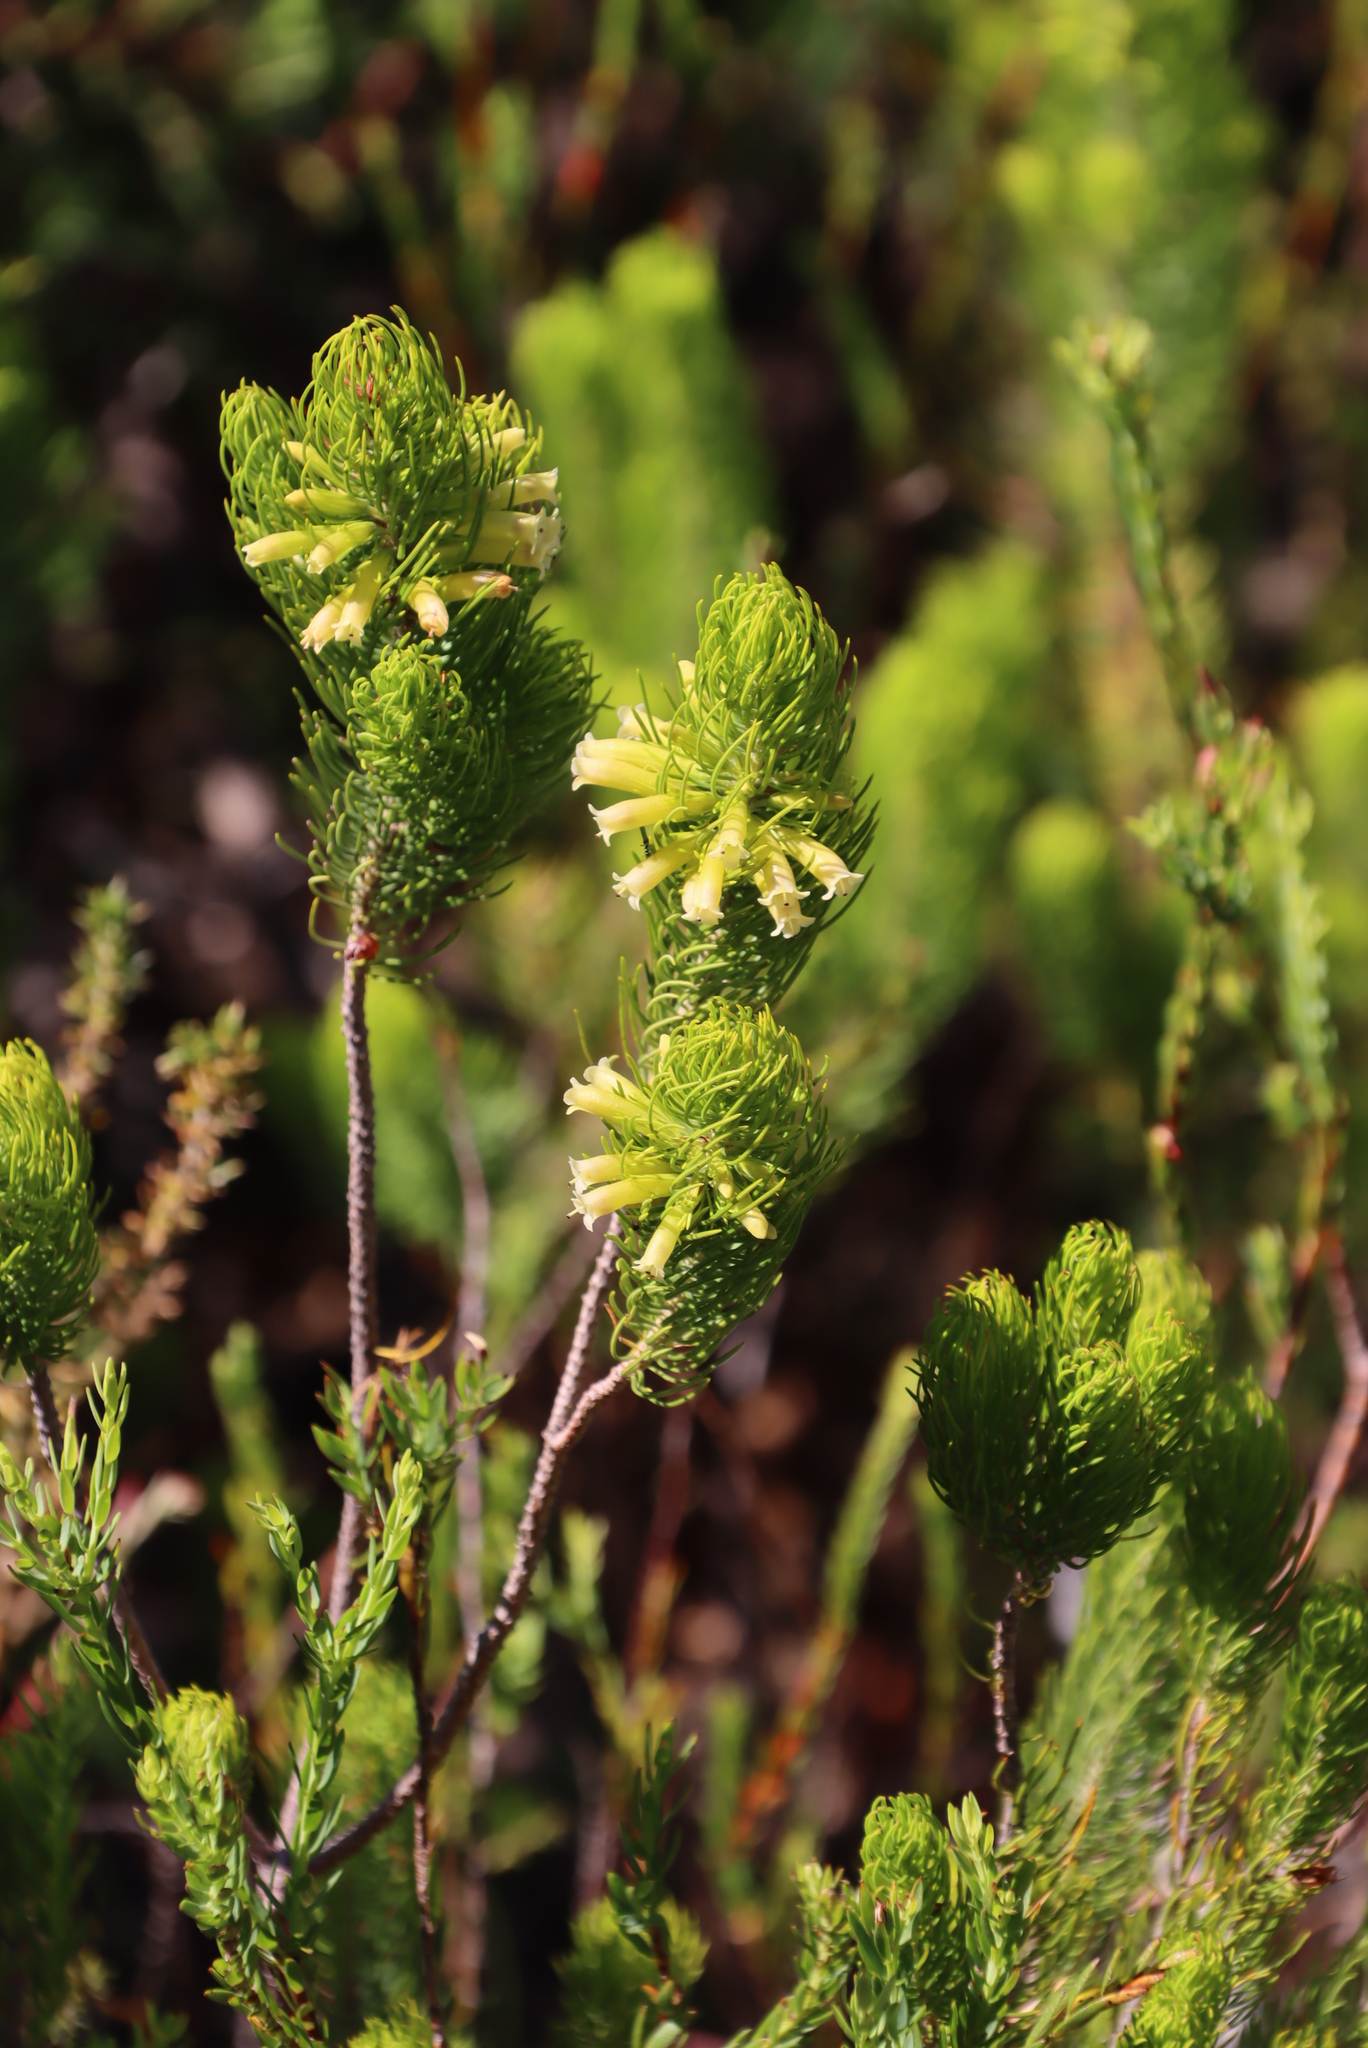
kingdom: Plantae
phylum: Tracheophyta
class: Magnoliopsida
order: Ericales
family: Ericaceae
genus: Erica
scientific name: Erica viscaria
